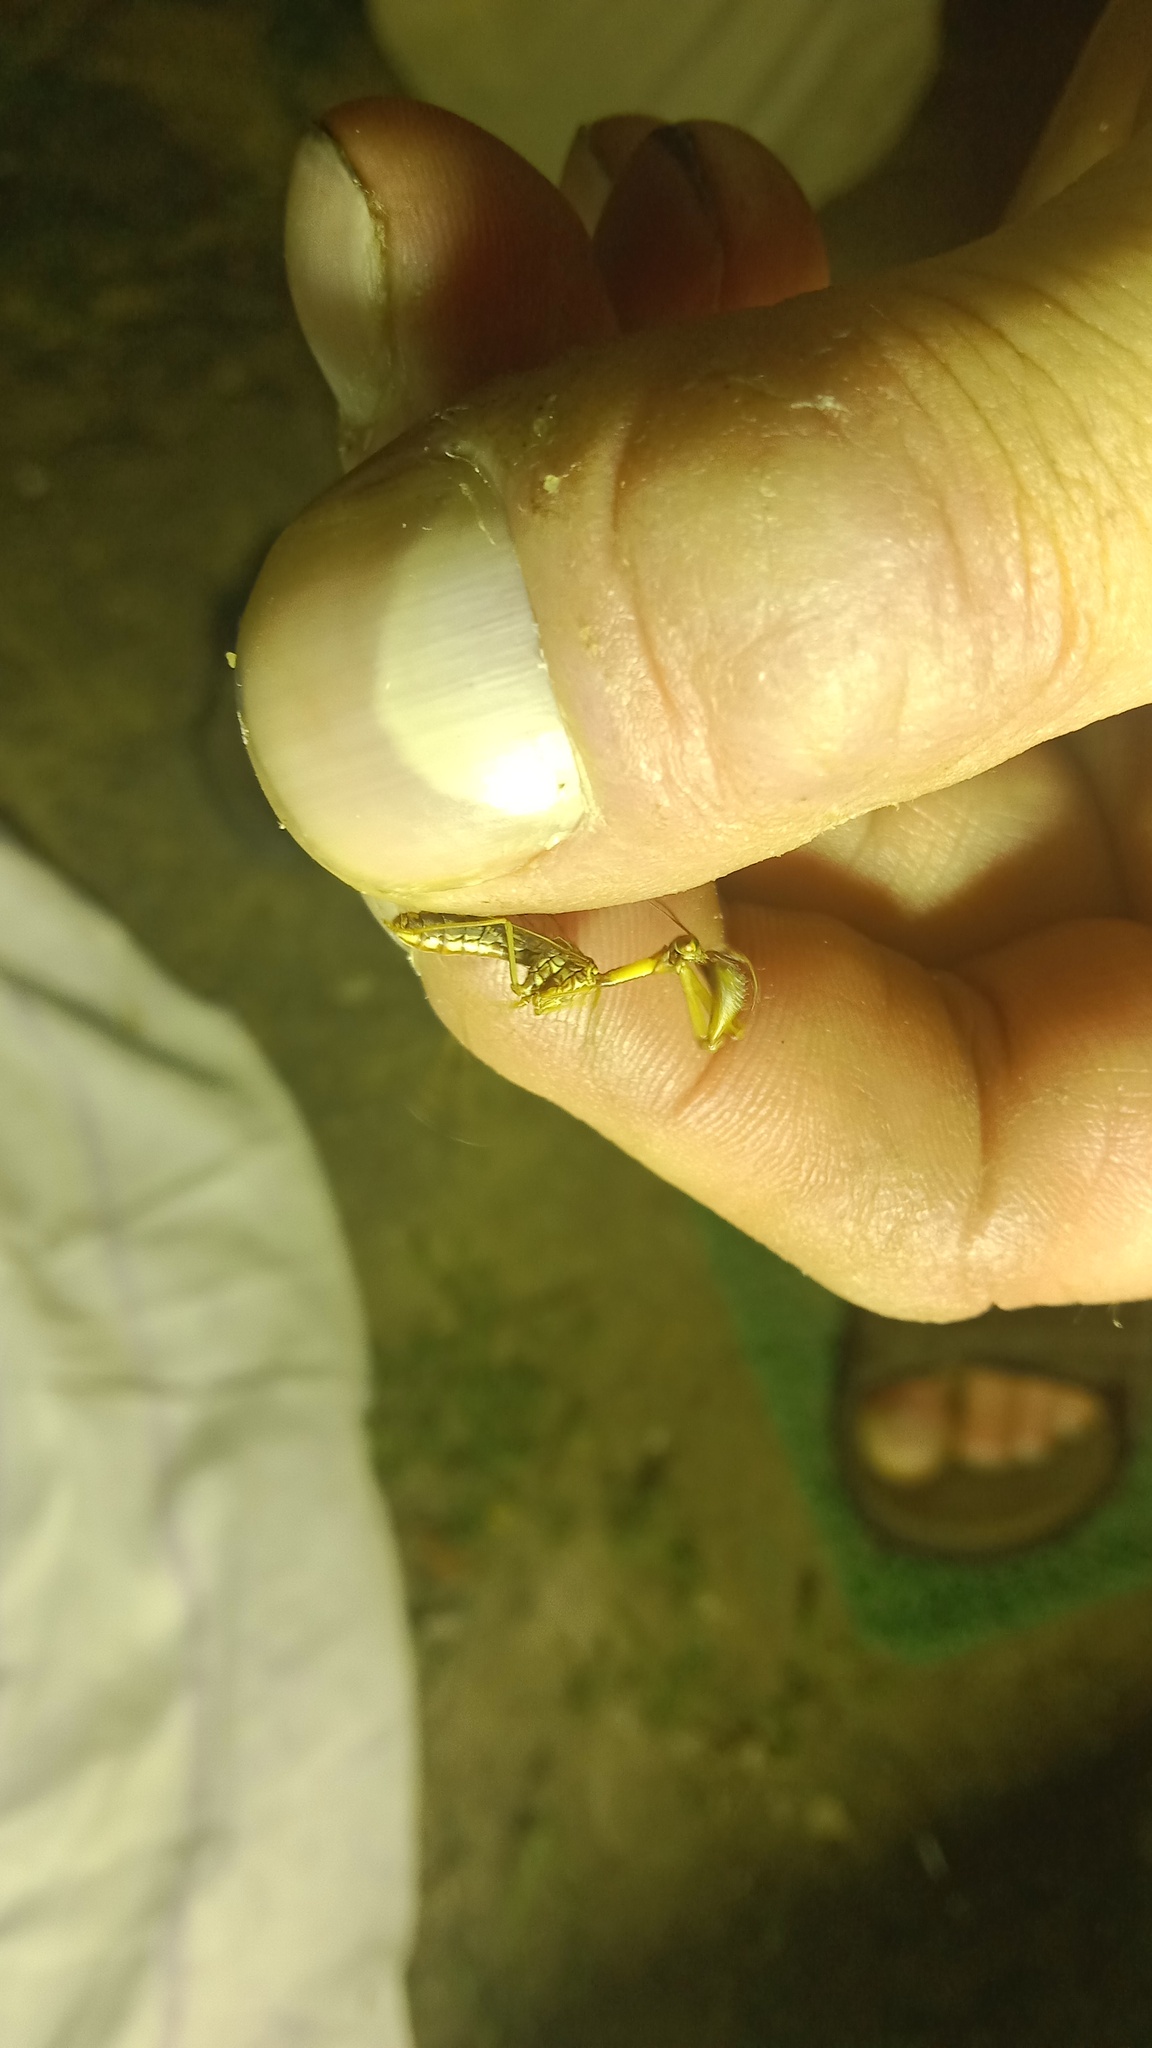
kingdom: Animalia
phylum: Arthropoda
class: Insecta
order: Neuroptera
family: Mantispidae
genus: Mantispa
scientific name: Mantispa styriaca
